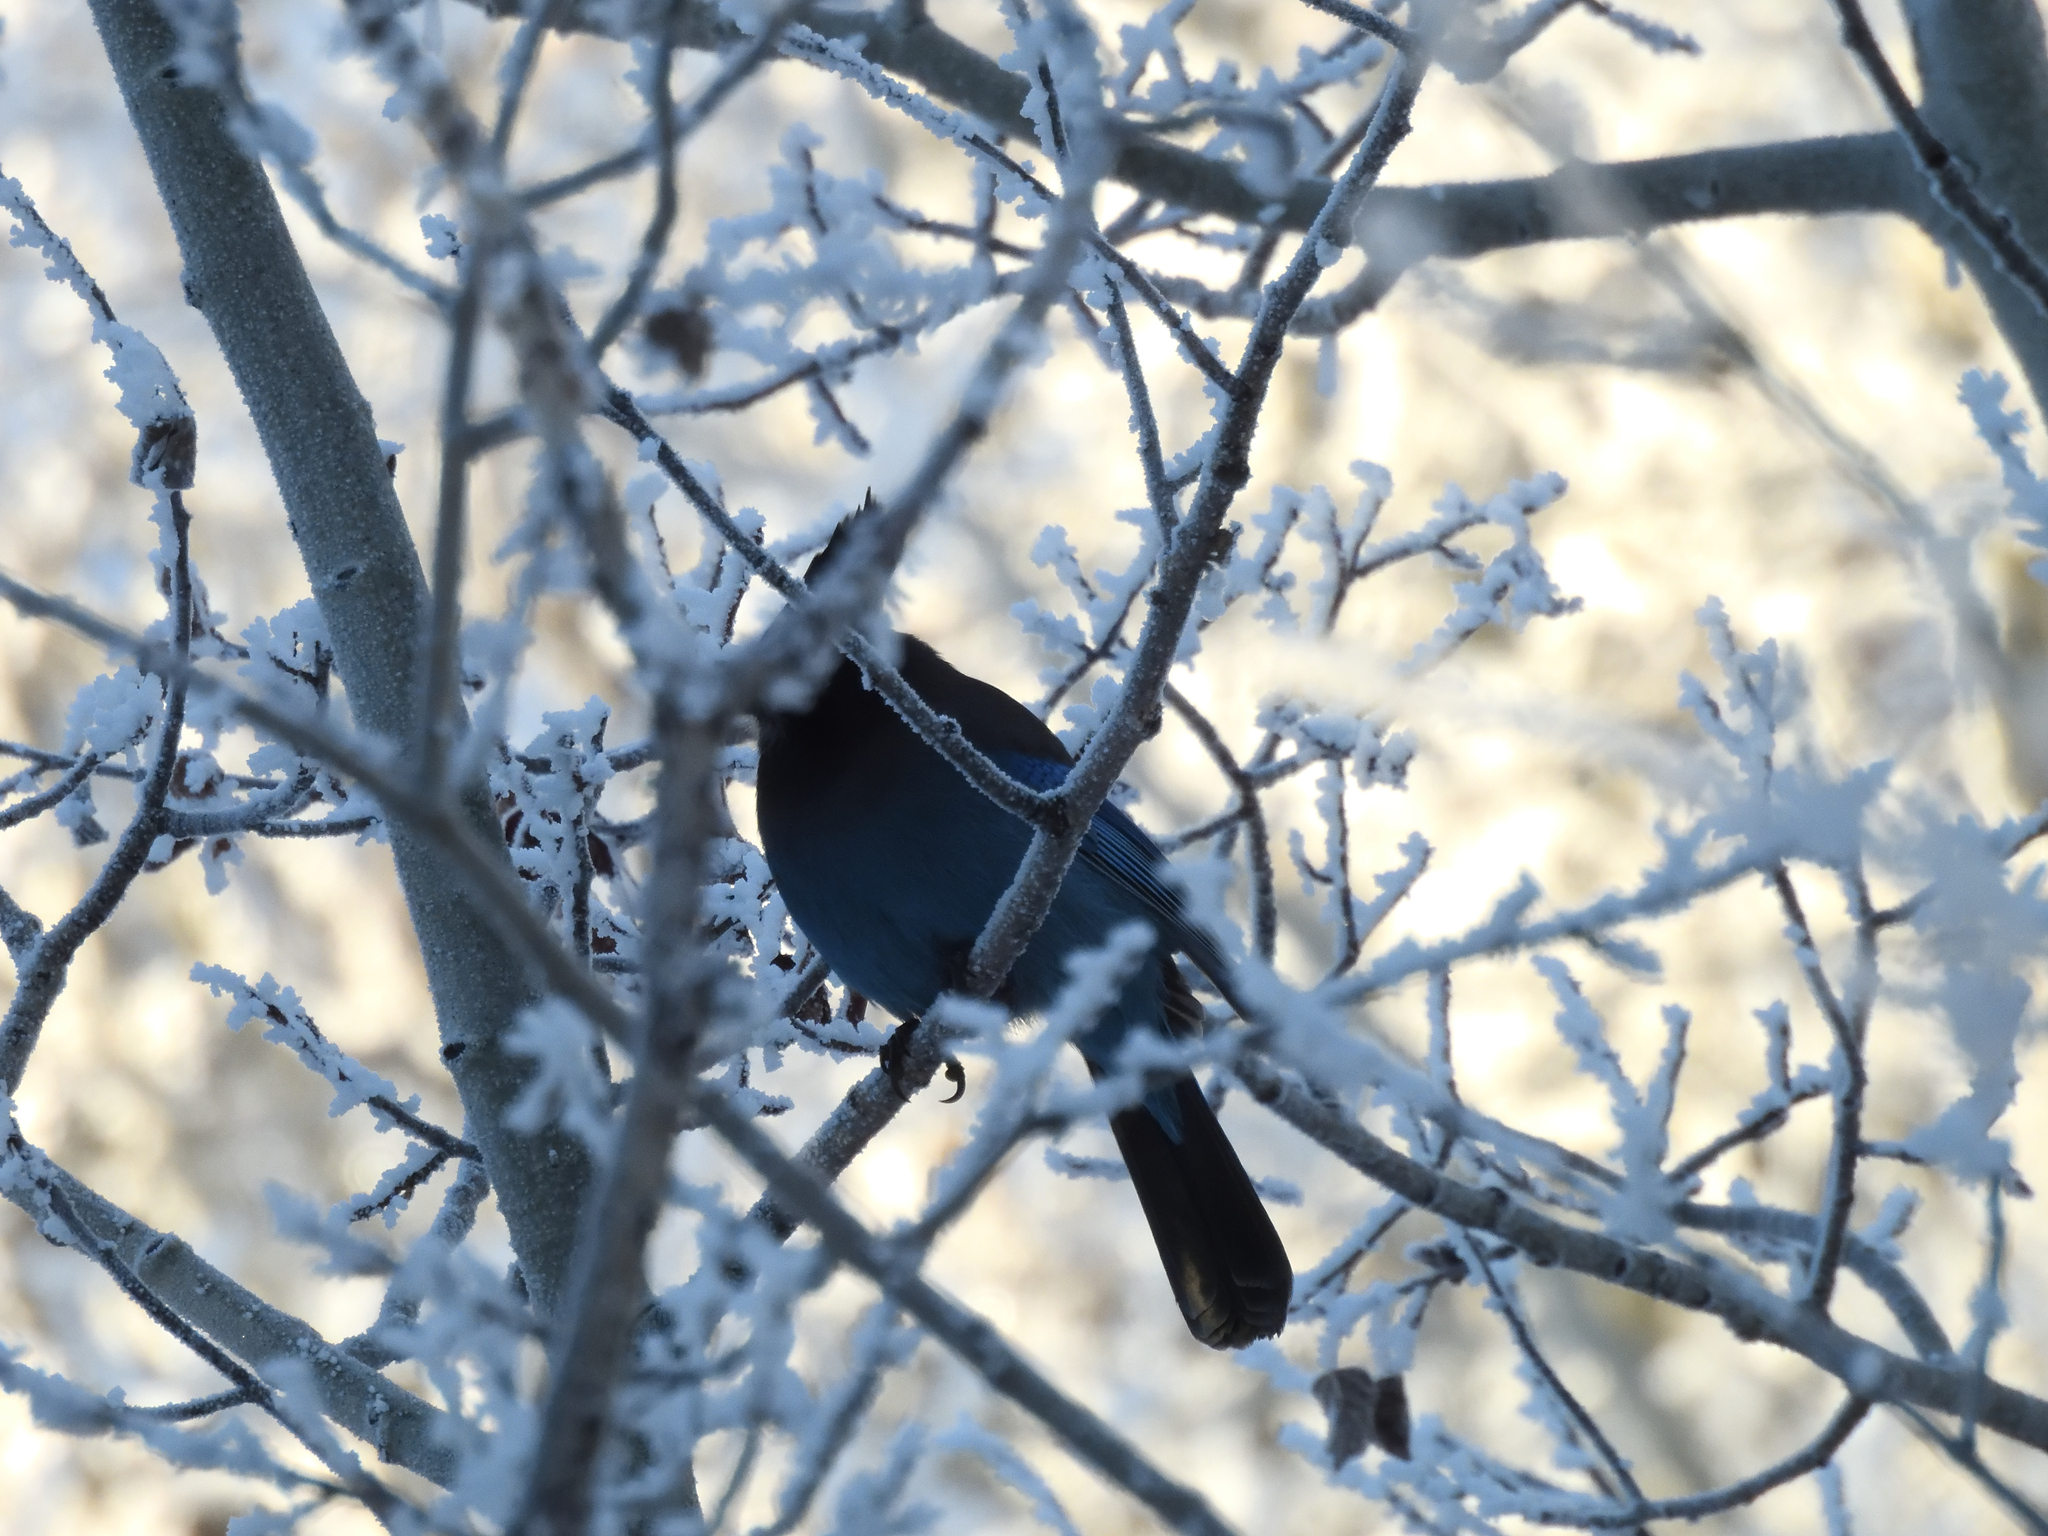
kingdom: Animalia
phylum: Chordata
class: Aves
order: Passeriformes
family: Corvidae
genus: Cyanocitta
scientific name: Cyanocitta stelleri
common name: Steller's jay
